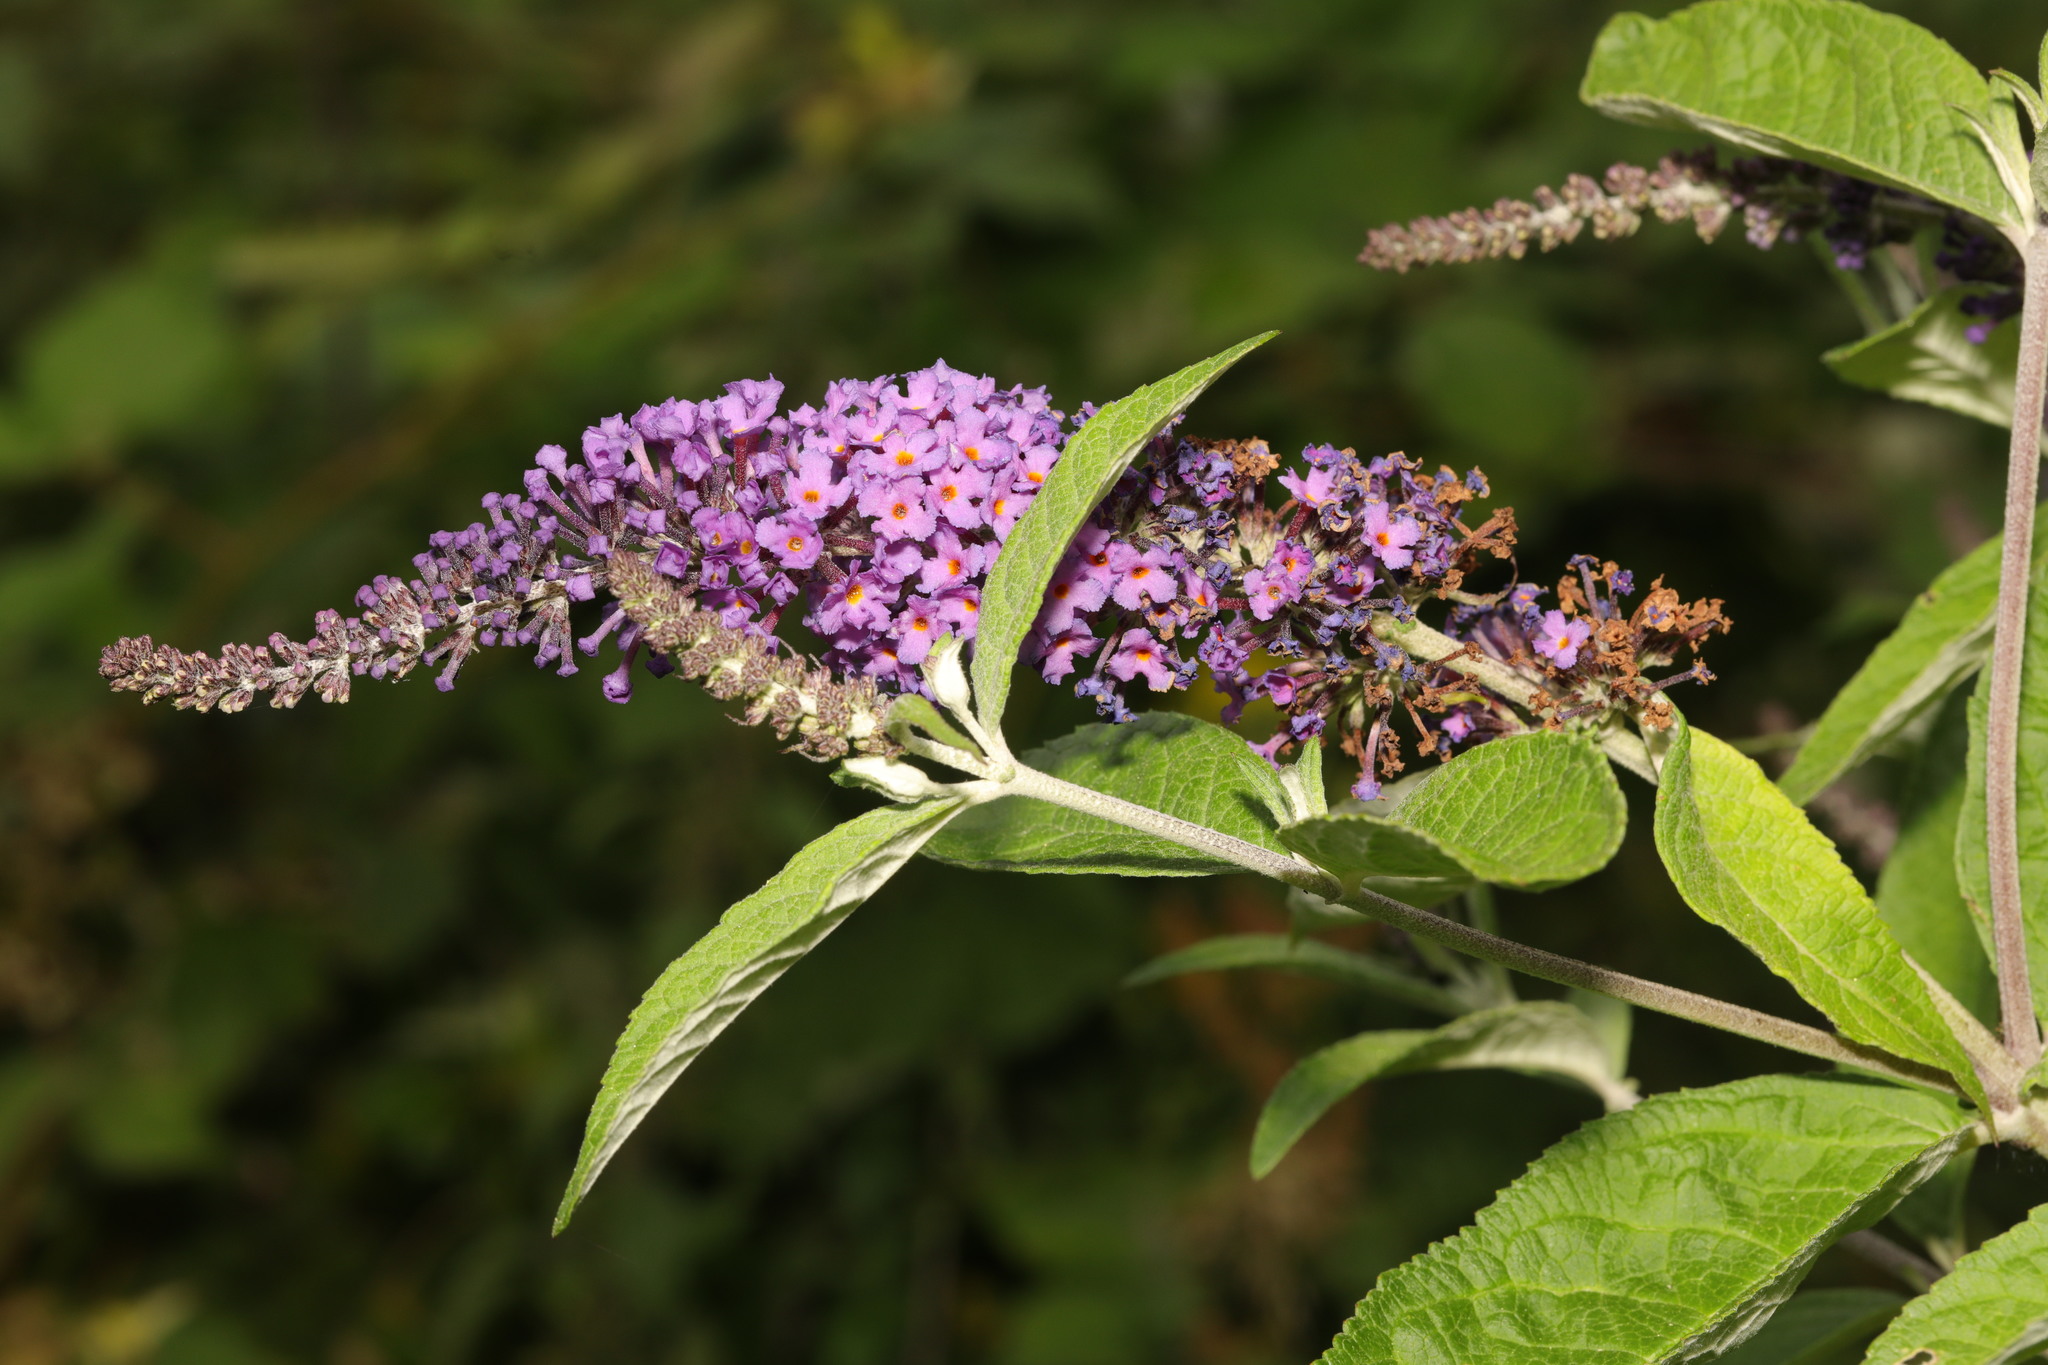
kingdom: Plantae
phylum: Tracheophyta
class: Magnoliopsida
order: Lamiales
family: Scrophulariaceae
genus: Buddleja
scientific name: Buddleja davidii
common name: Butterfly-bush
